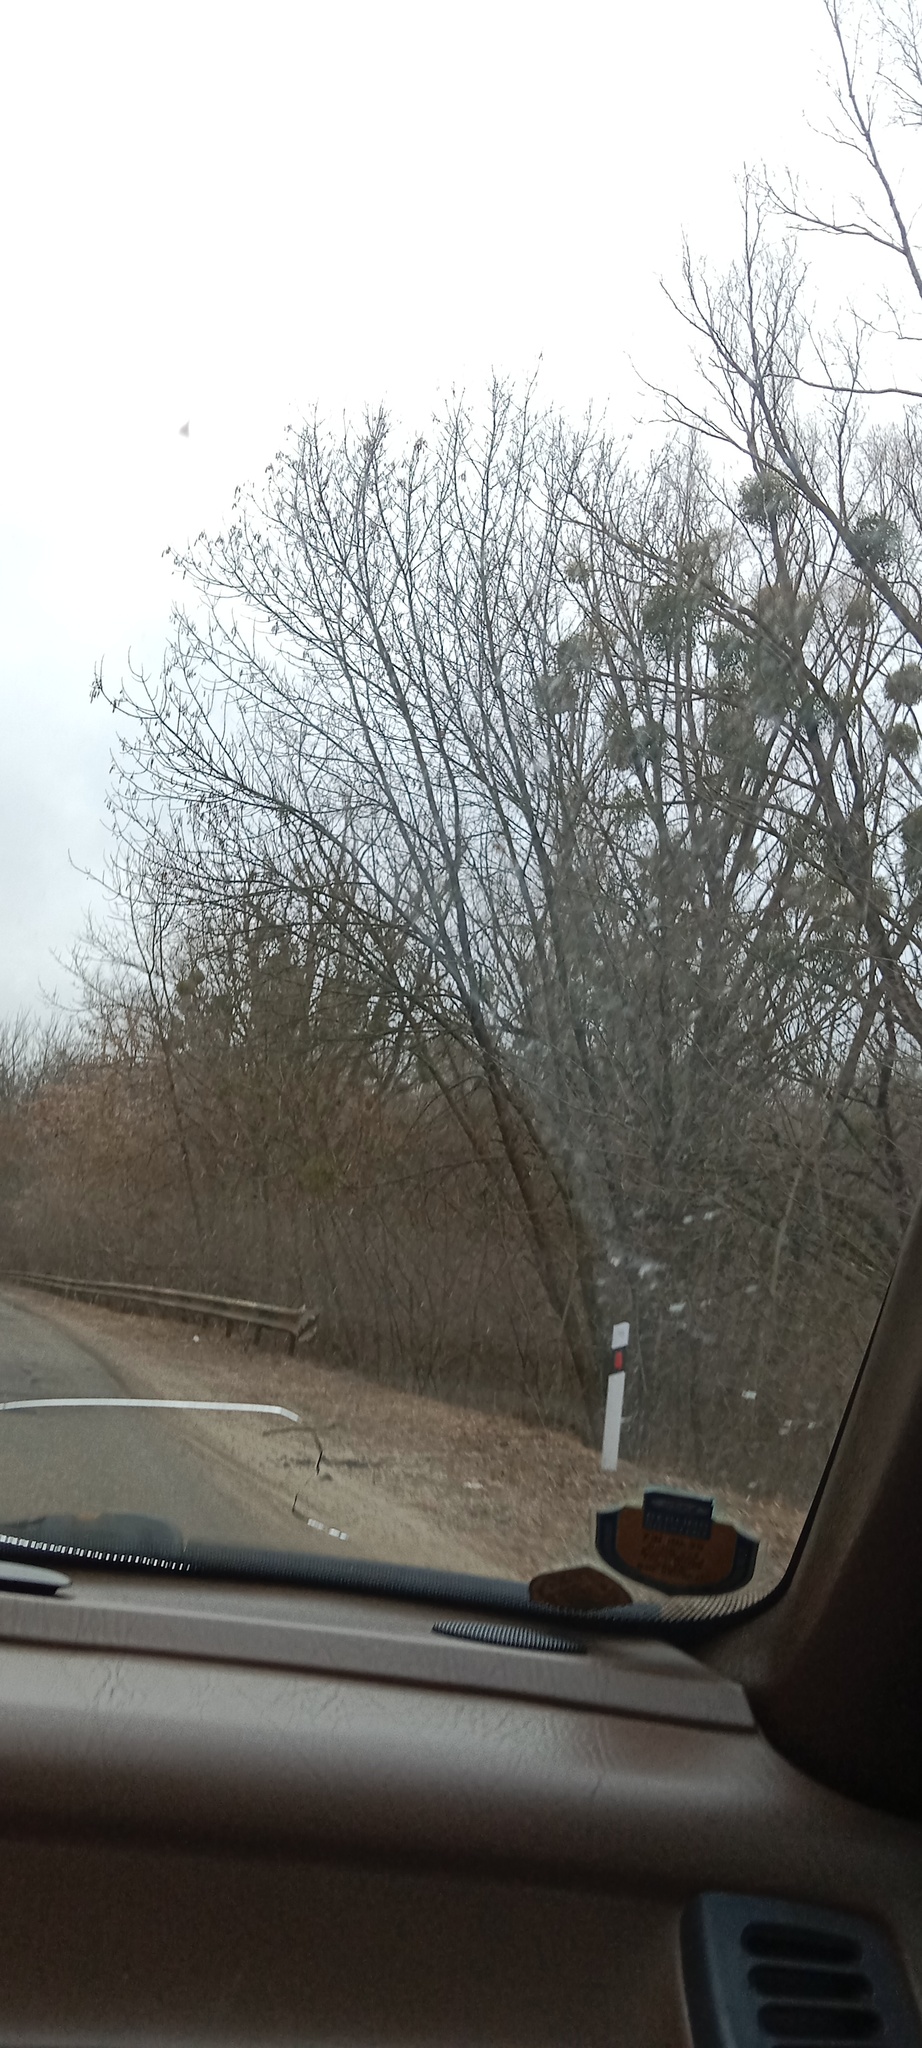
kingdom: Plantae
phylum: Tracheophyta
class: Magnoliopsida
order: Santalales
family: Viscaceae
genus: Viscum
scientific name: Viscum album
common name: Mistletoe
